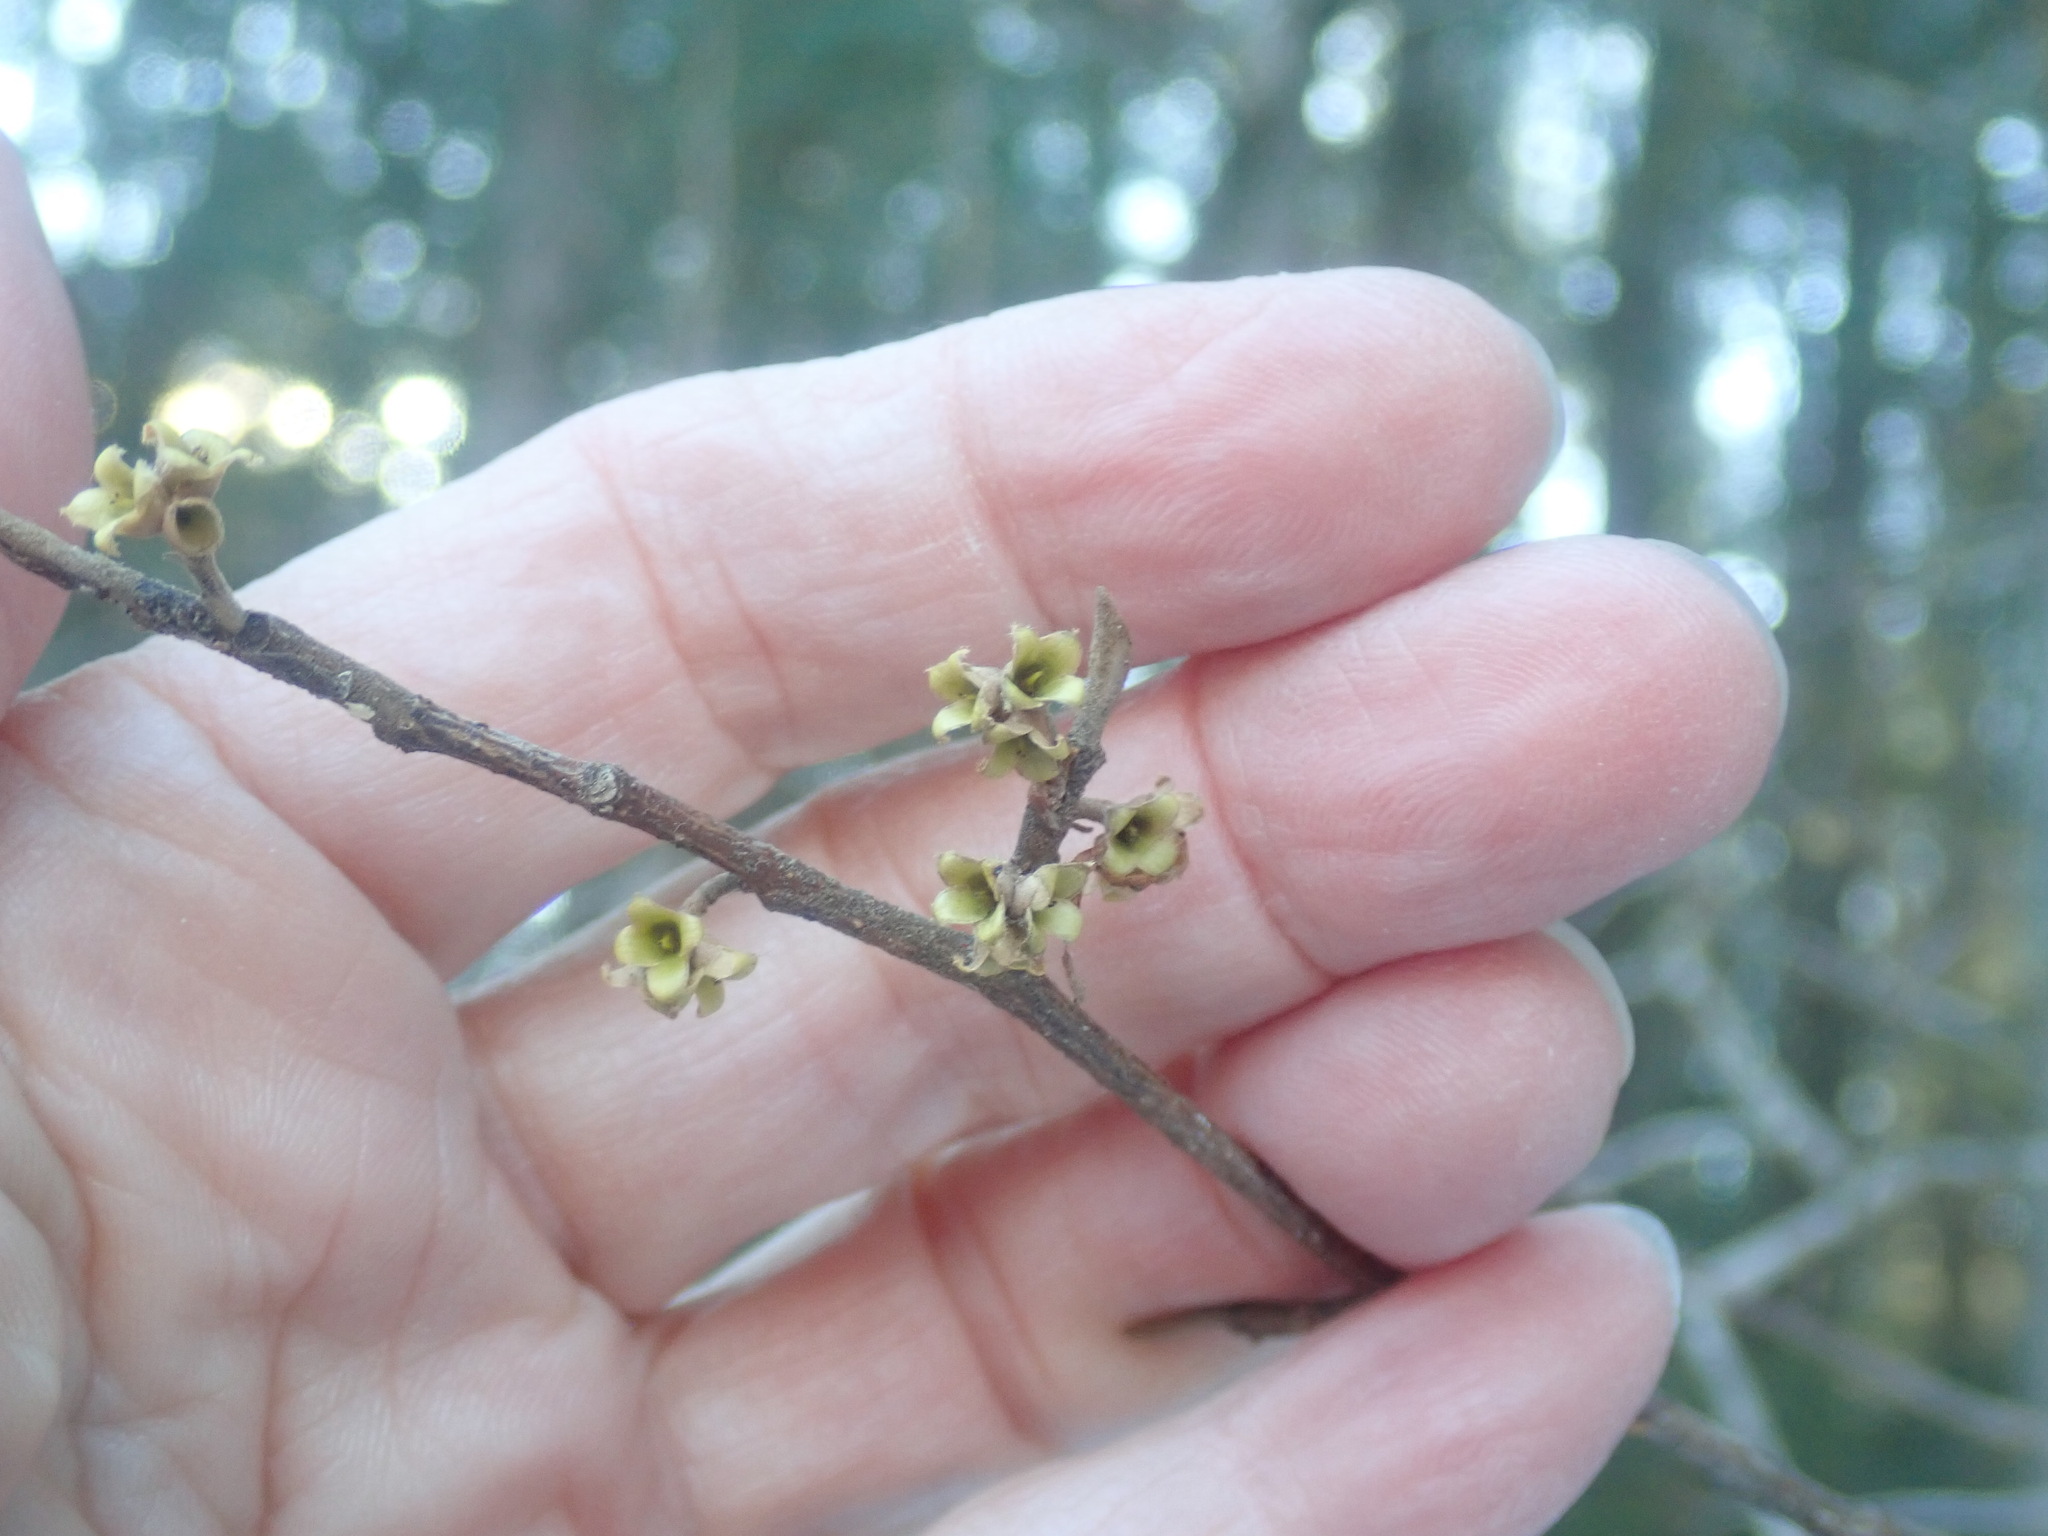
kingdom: Plantae
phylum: Tracheophyta
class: Magnoliopsida
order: Saxifragales
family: Hamamelidaceae
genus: Hamamelis
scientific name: Hamamelis virginiana
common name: Witch-hazel
